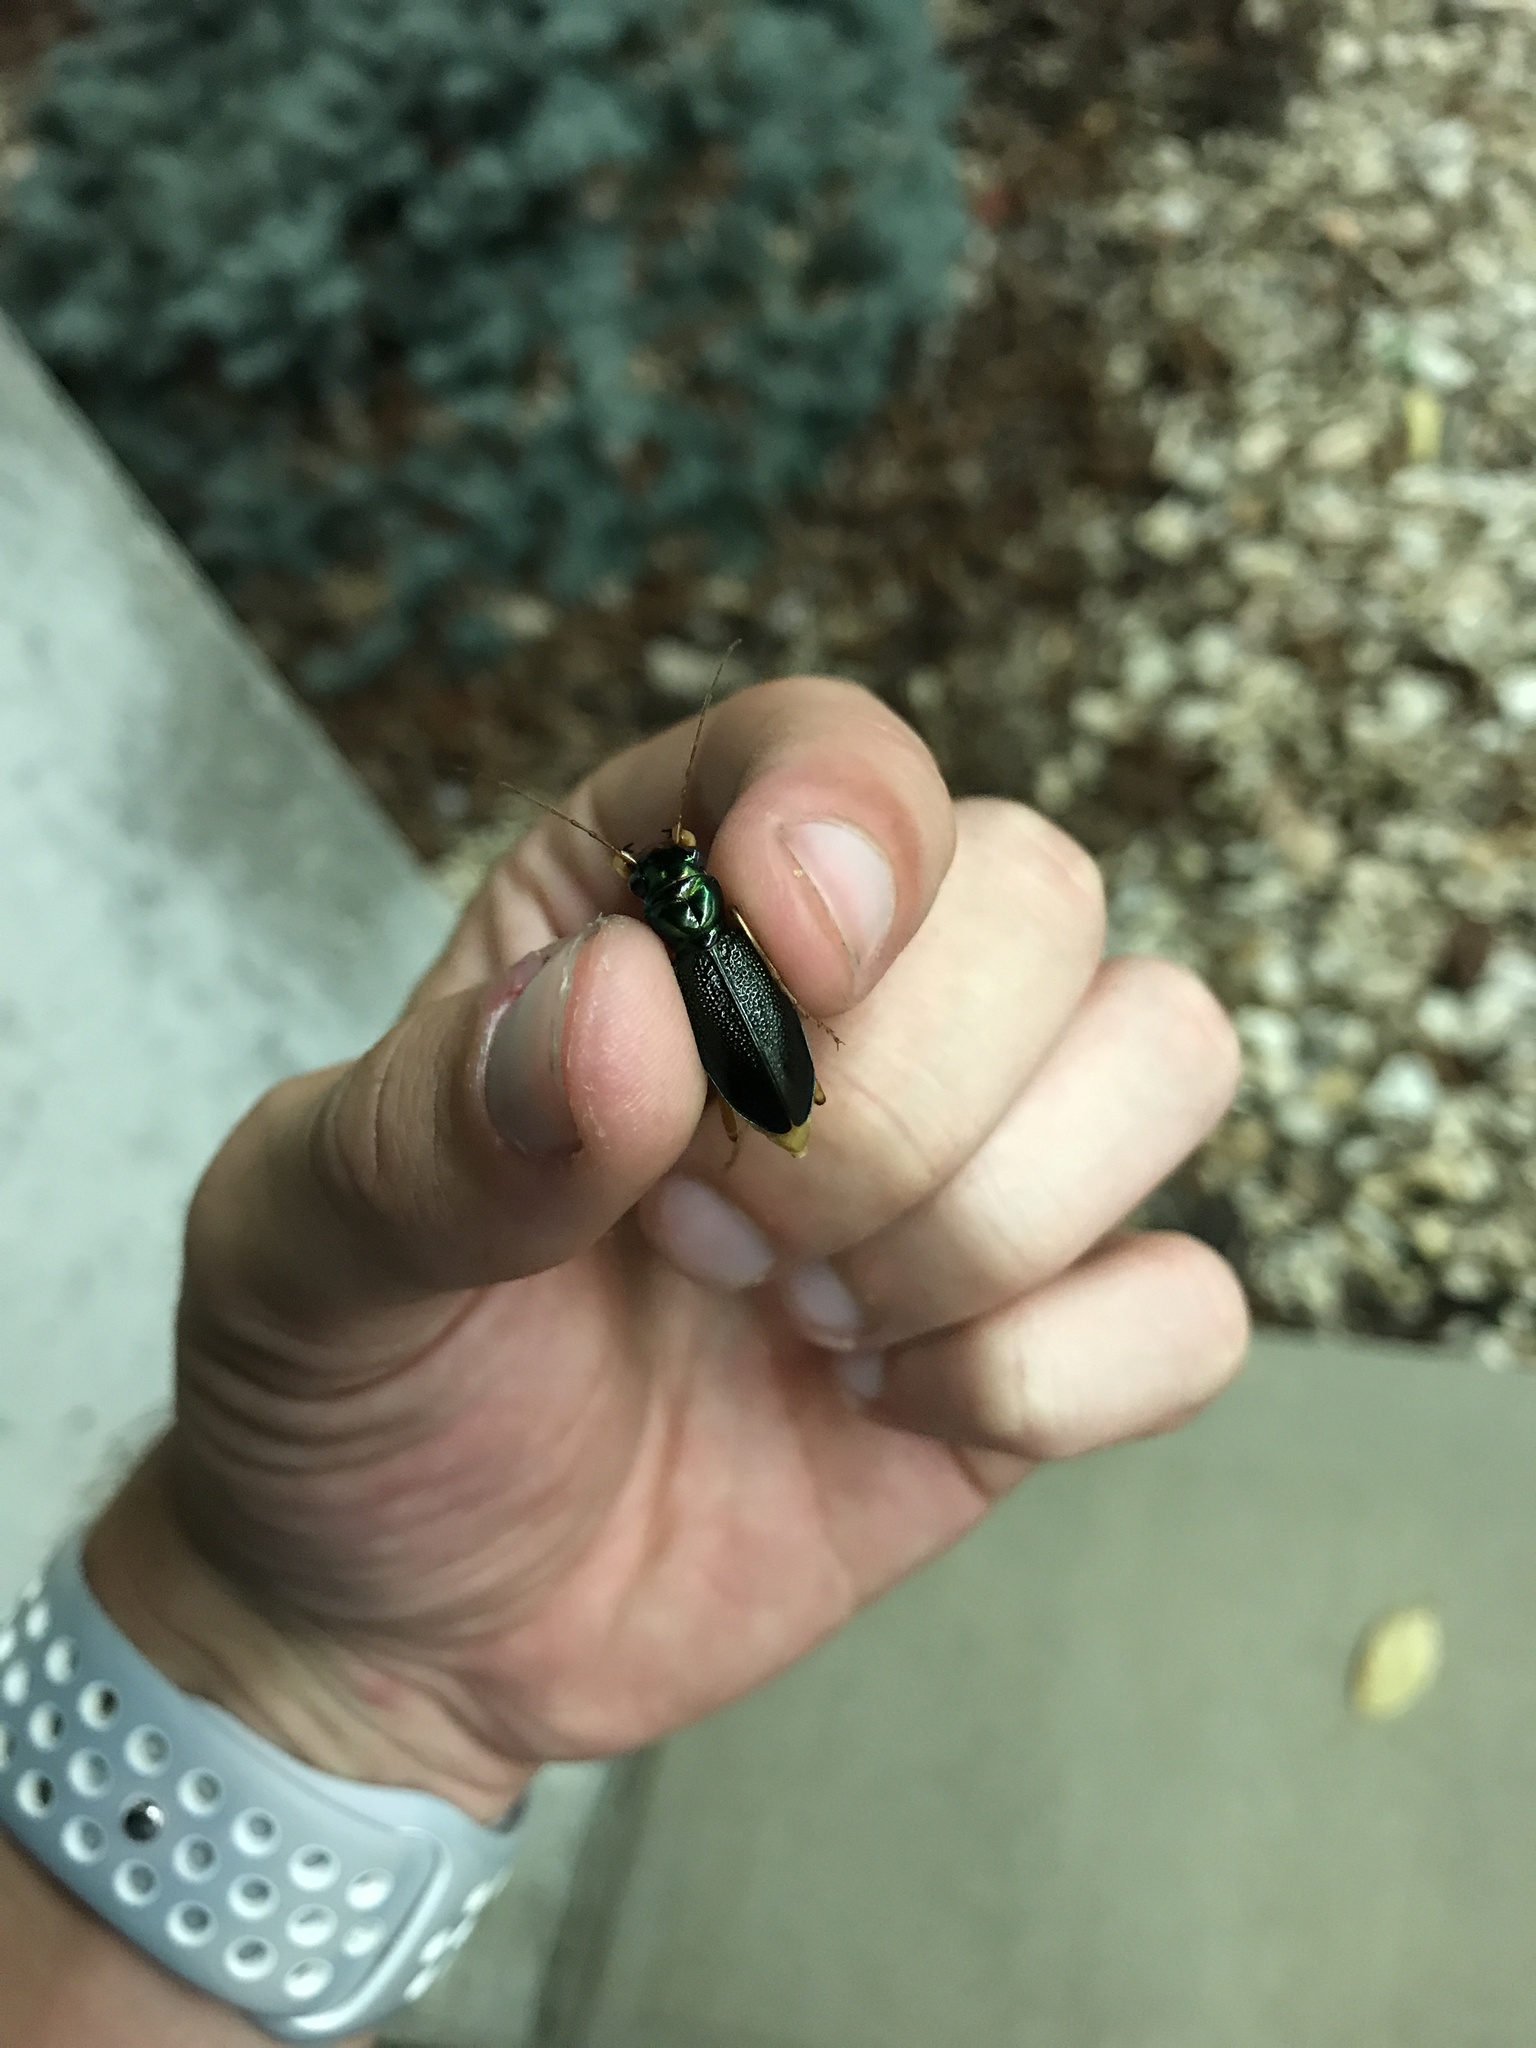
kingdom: Animalia
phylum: Arthropoda
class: Insecta
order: Coleoptera
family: Carabidae
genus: Tetracha
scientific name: Tetracha virginica
